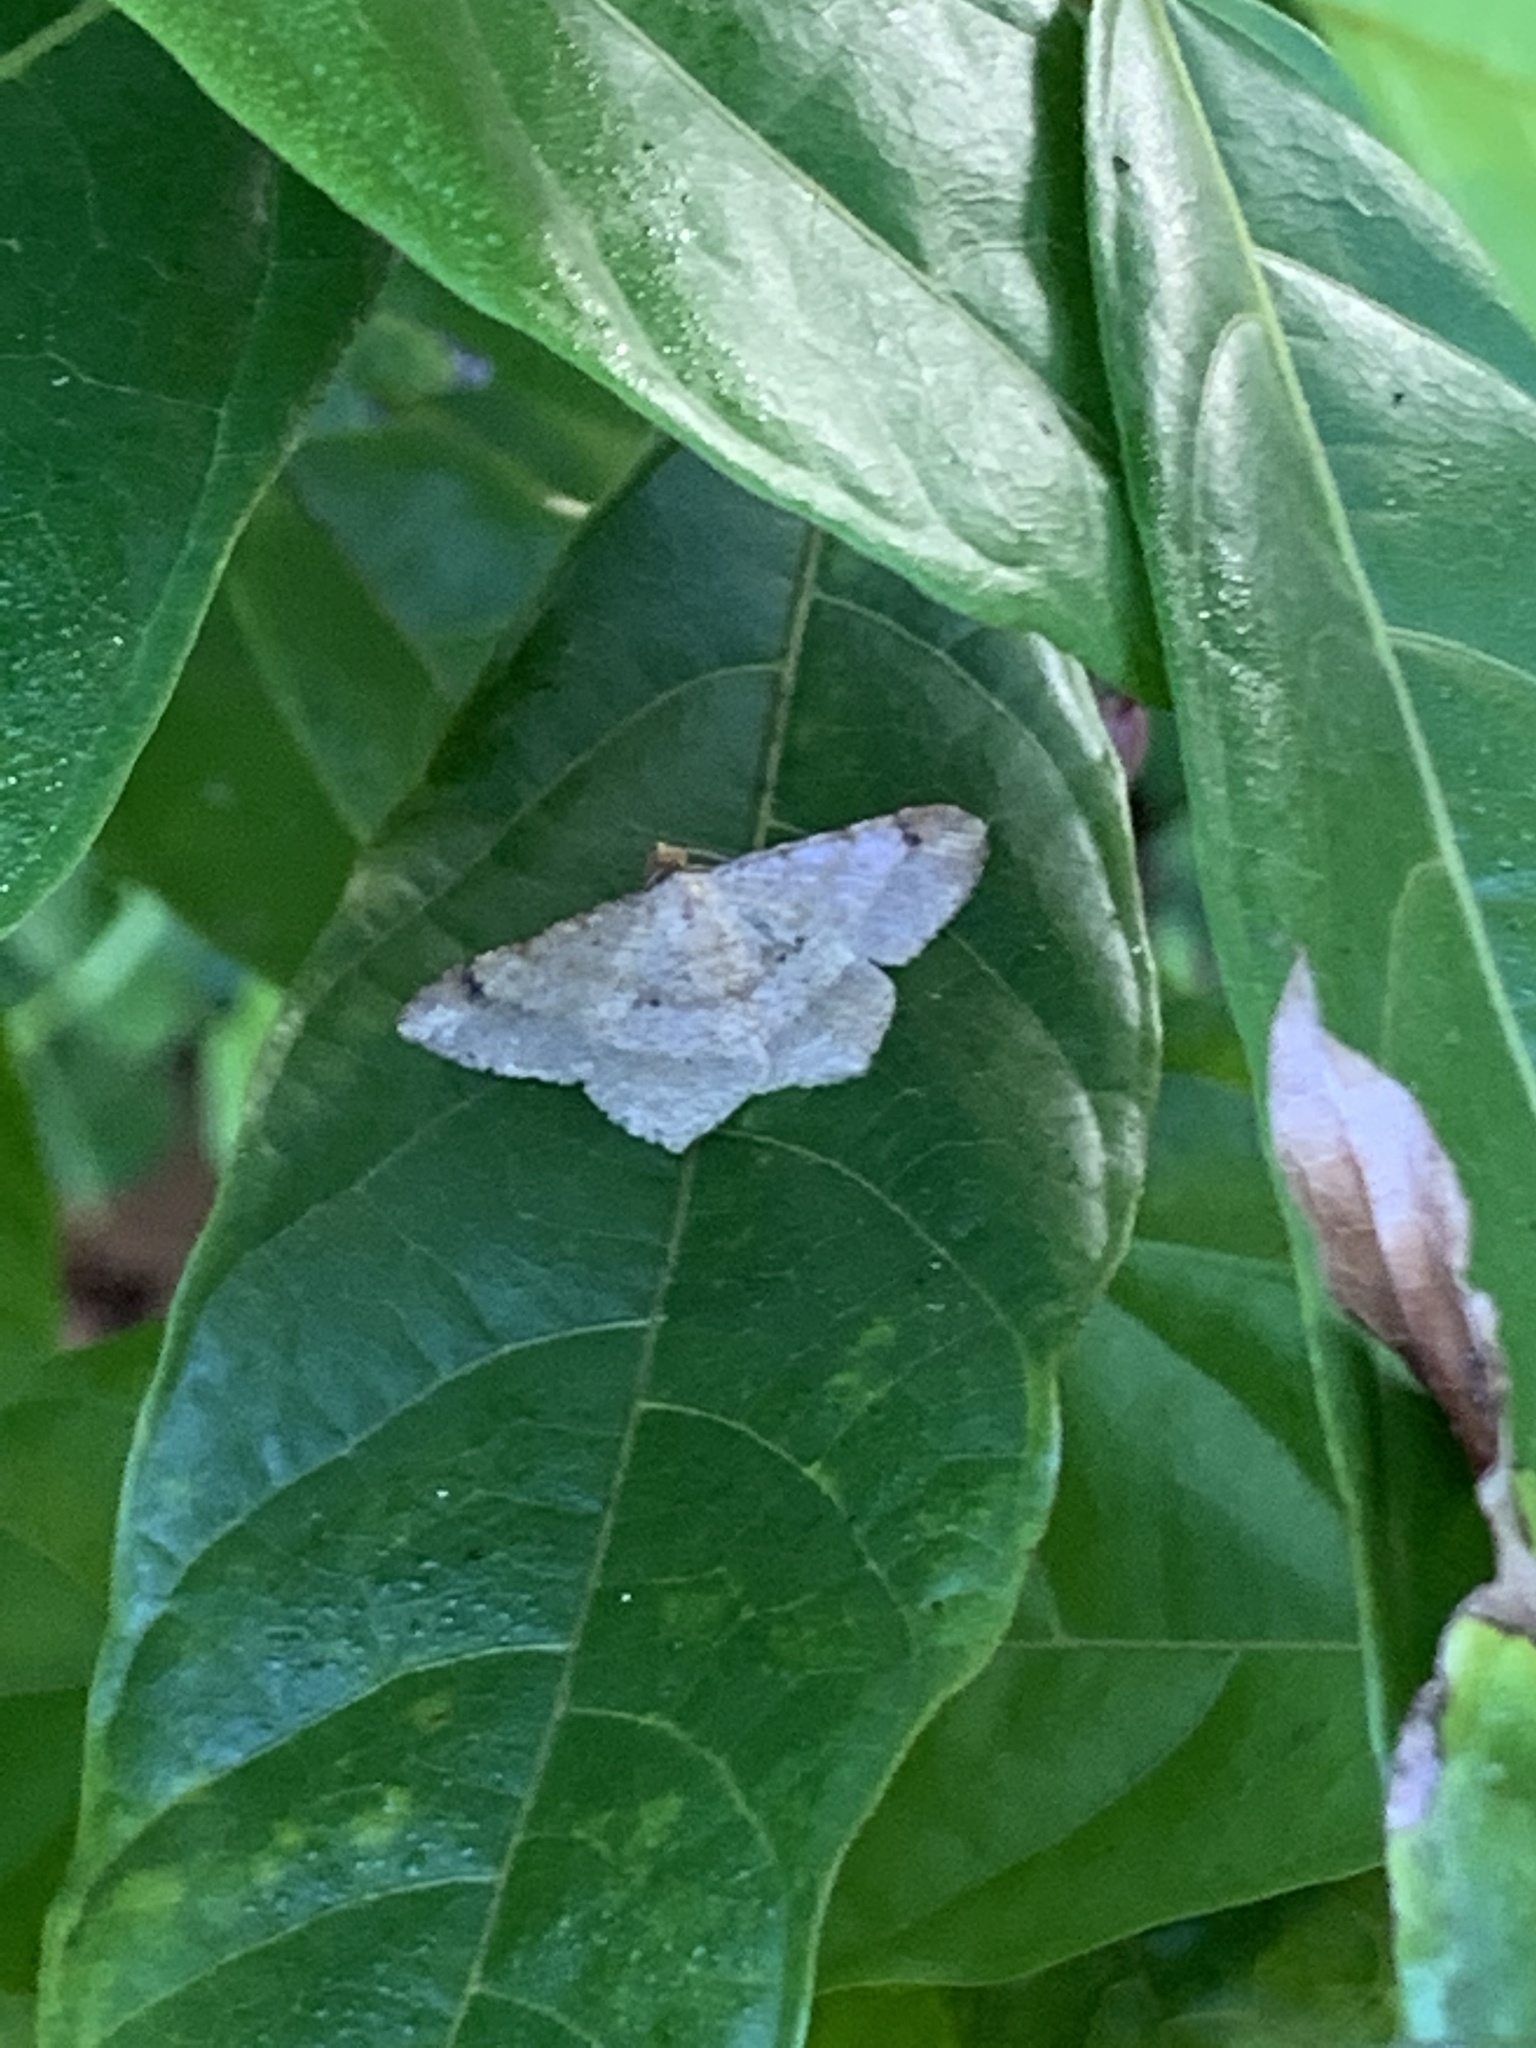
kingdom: Animalia
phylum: Arthropoda
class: Insecta
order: Lepidoptera
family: Geometridae
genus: Macaria
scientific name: Macaria abydata
